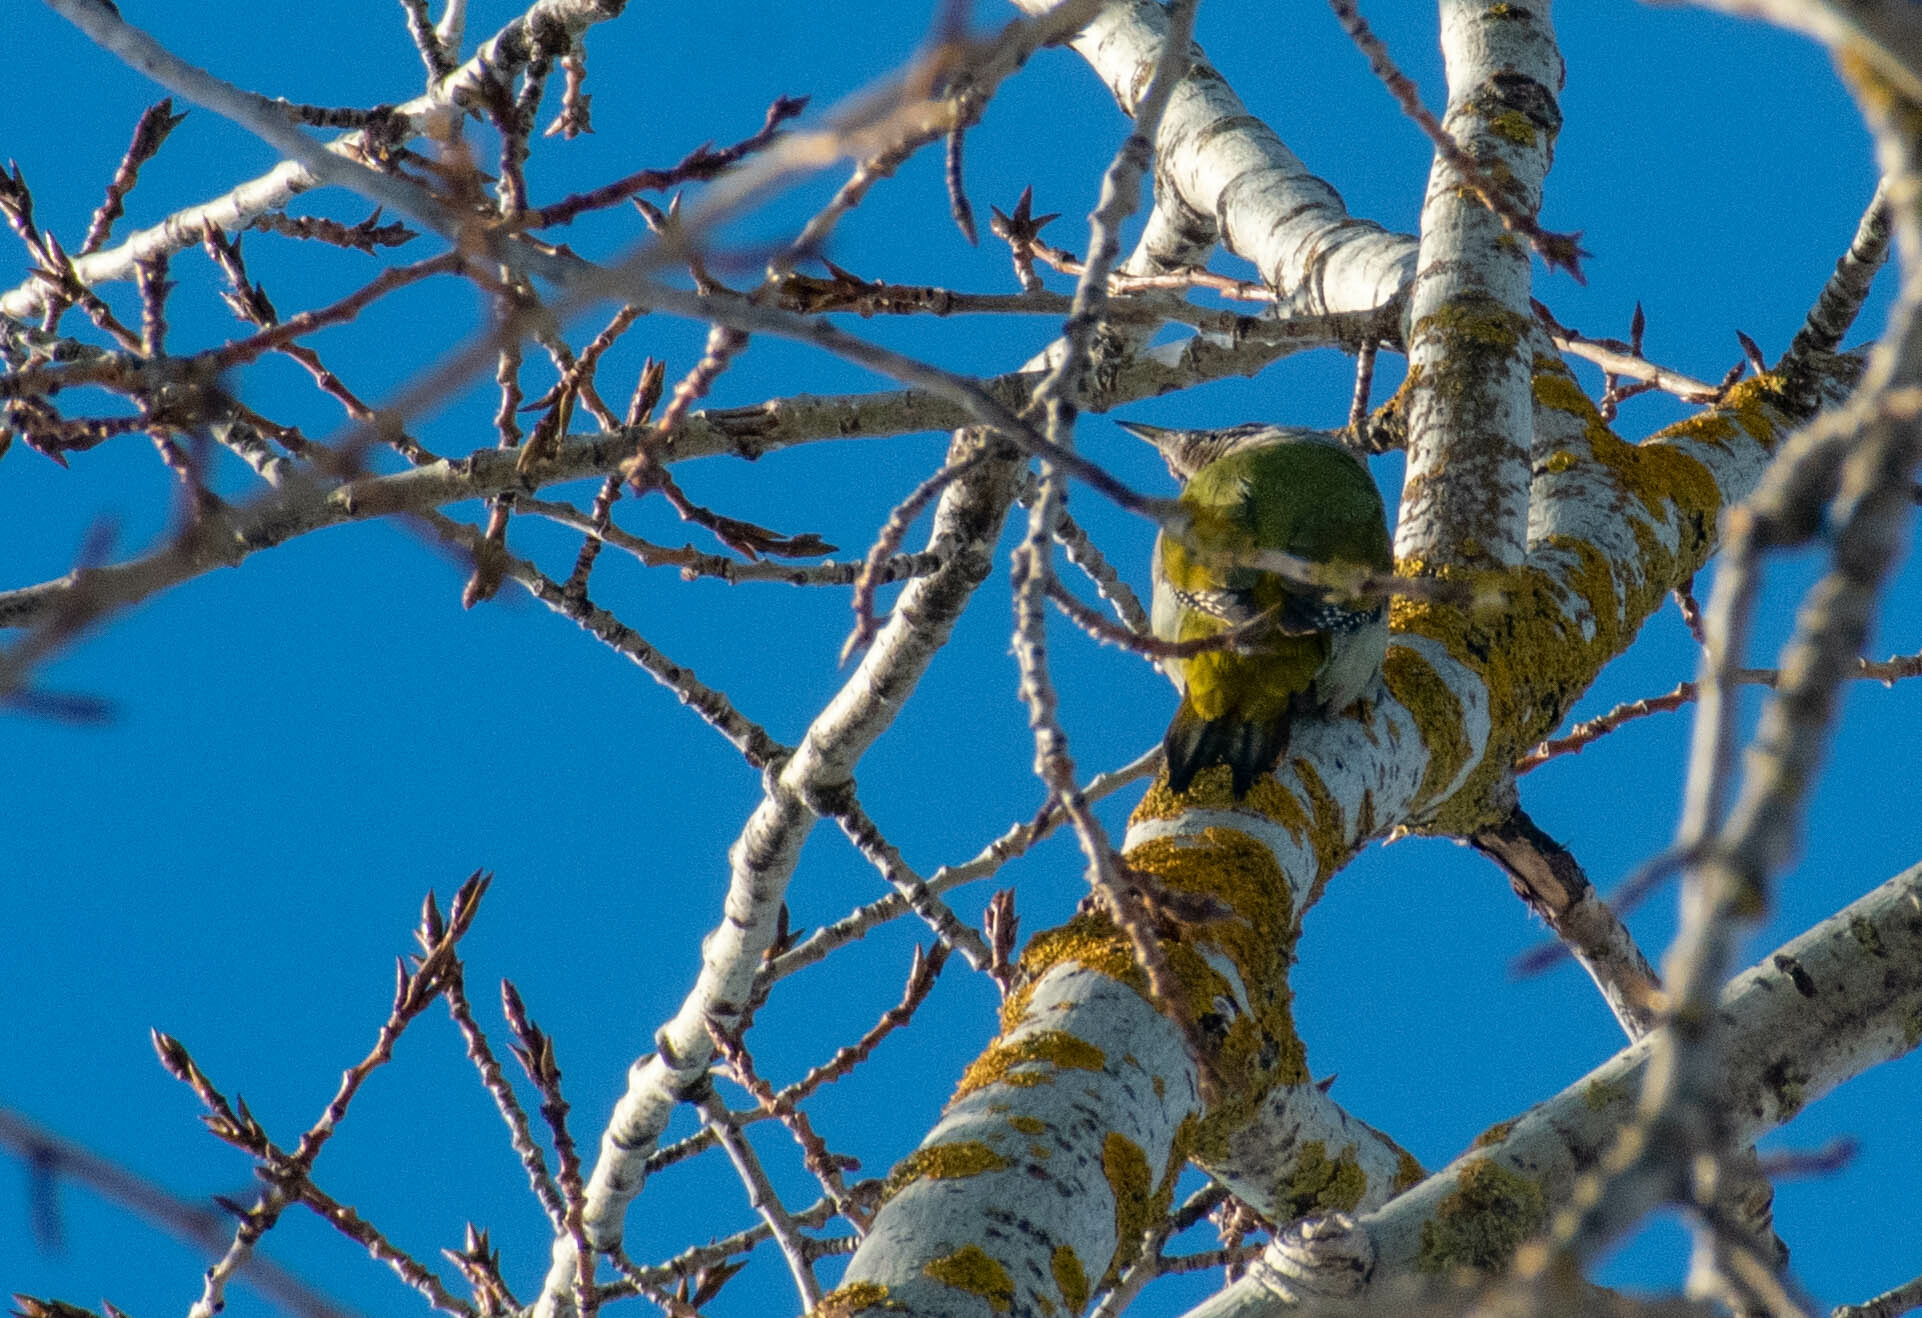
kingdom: Animalia
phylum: Chordata
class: Aves
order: Piciformes
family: Picidae
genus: Picus
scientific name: Picus canus
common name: Grey-headed woodpecker
